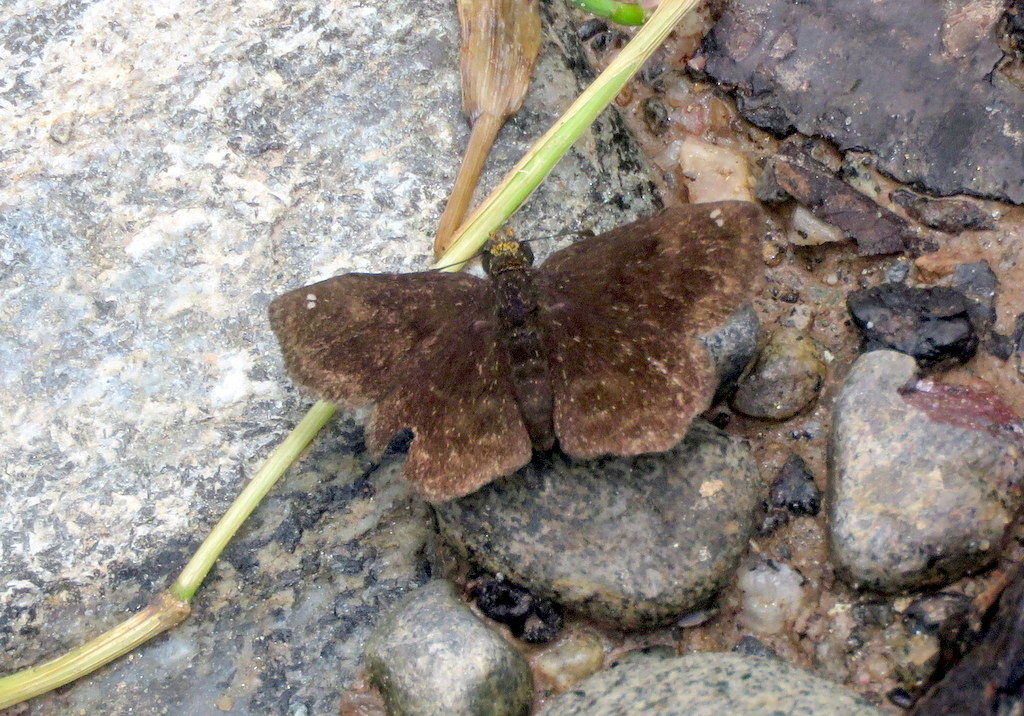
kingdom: Animalia
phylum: Arthropoda
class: Insecta
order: Lepidoptera
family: Hesperiidae
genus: Staphylus
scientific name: Staphylus musculus
